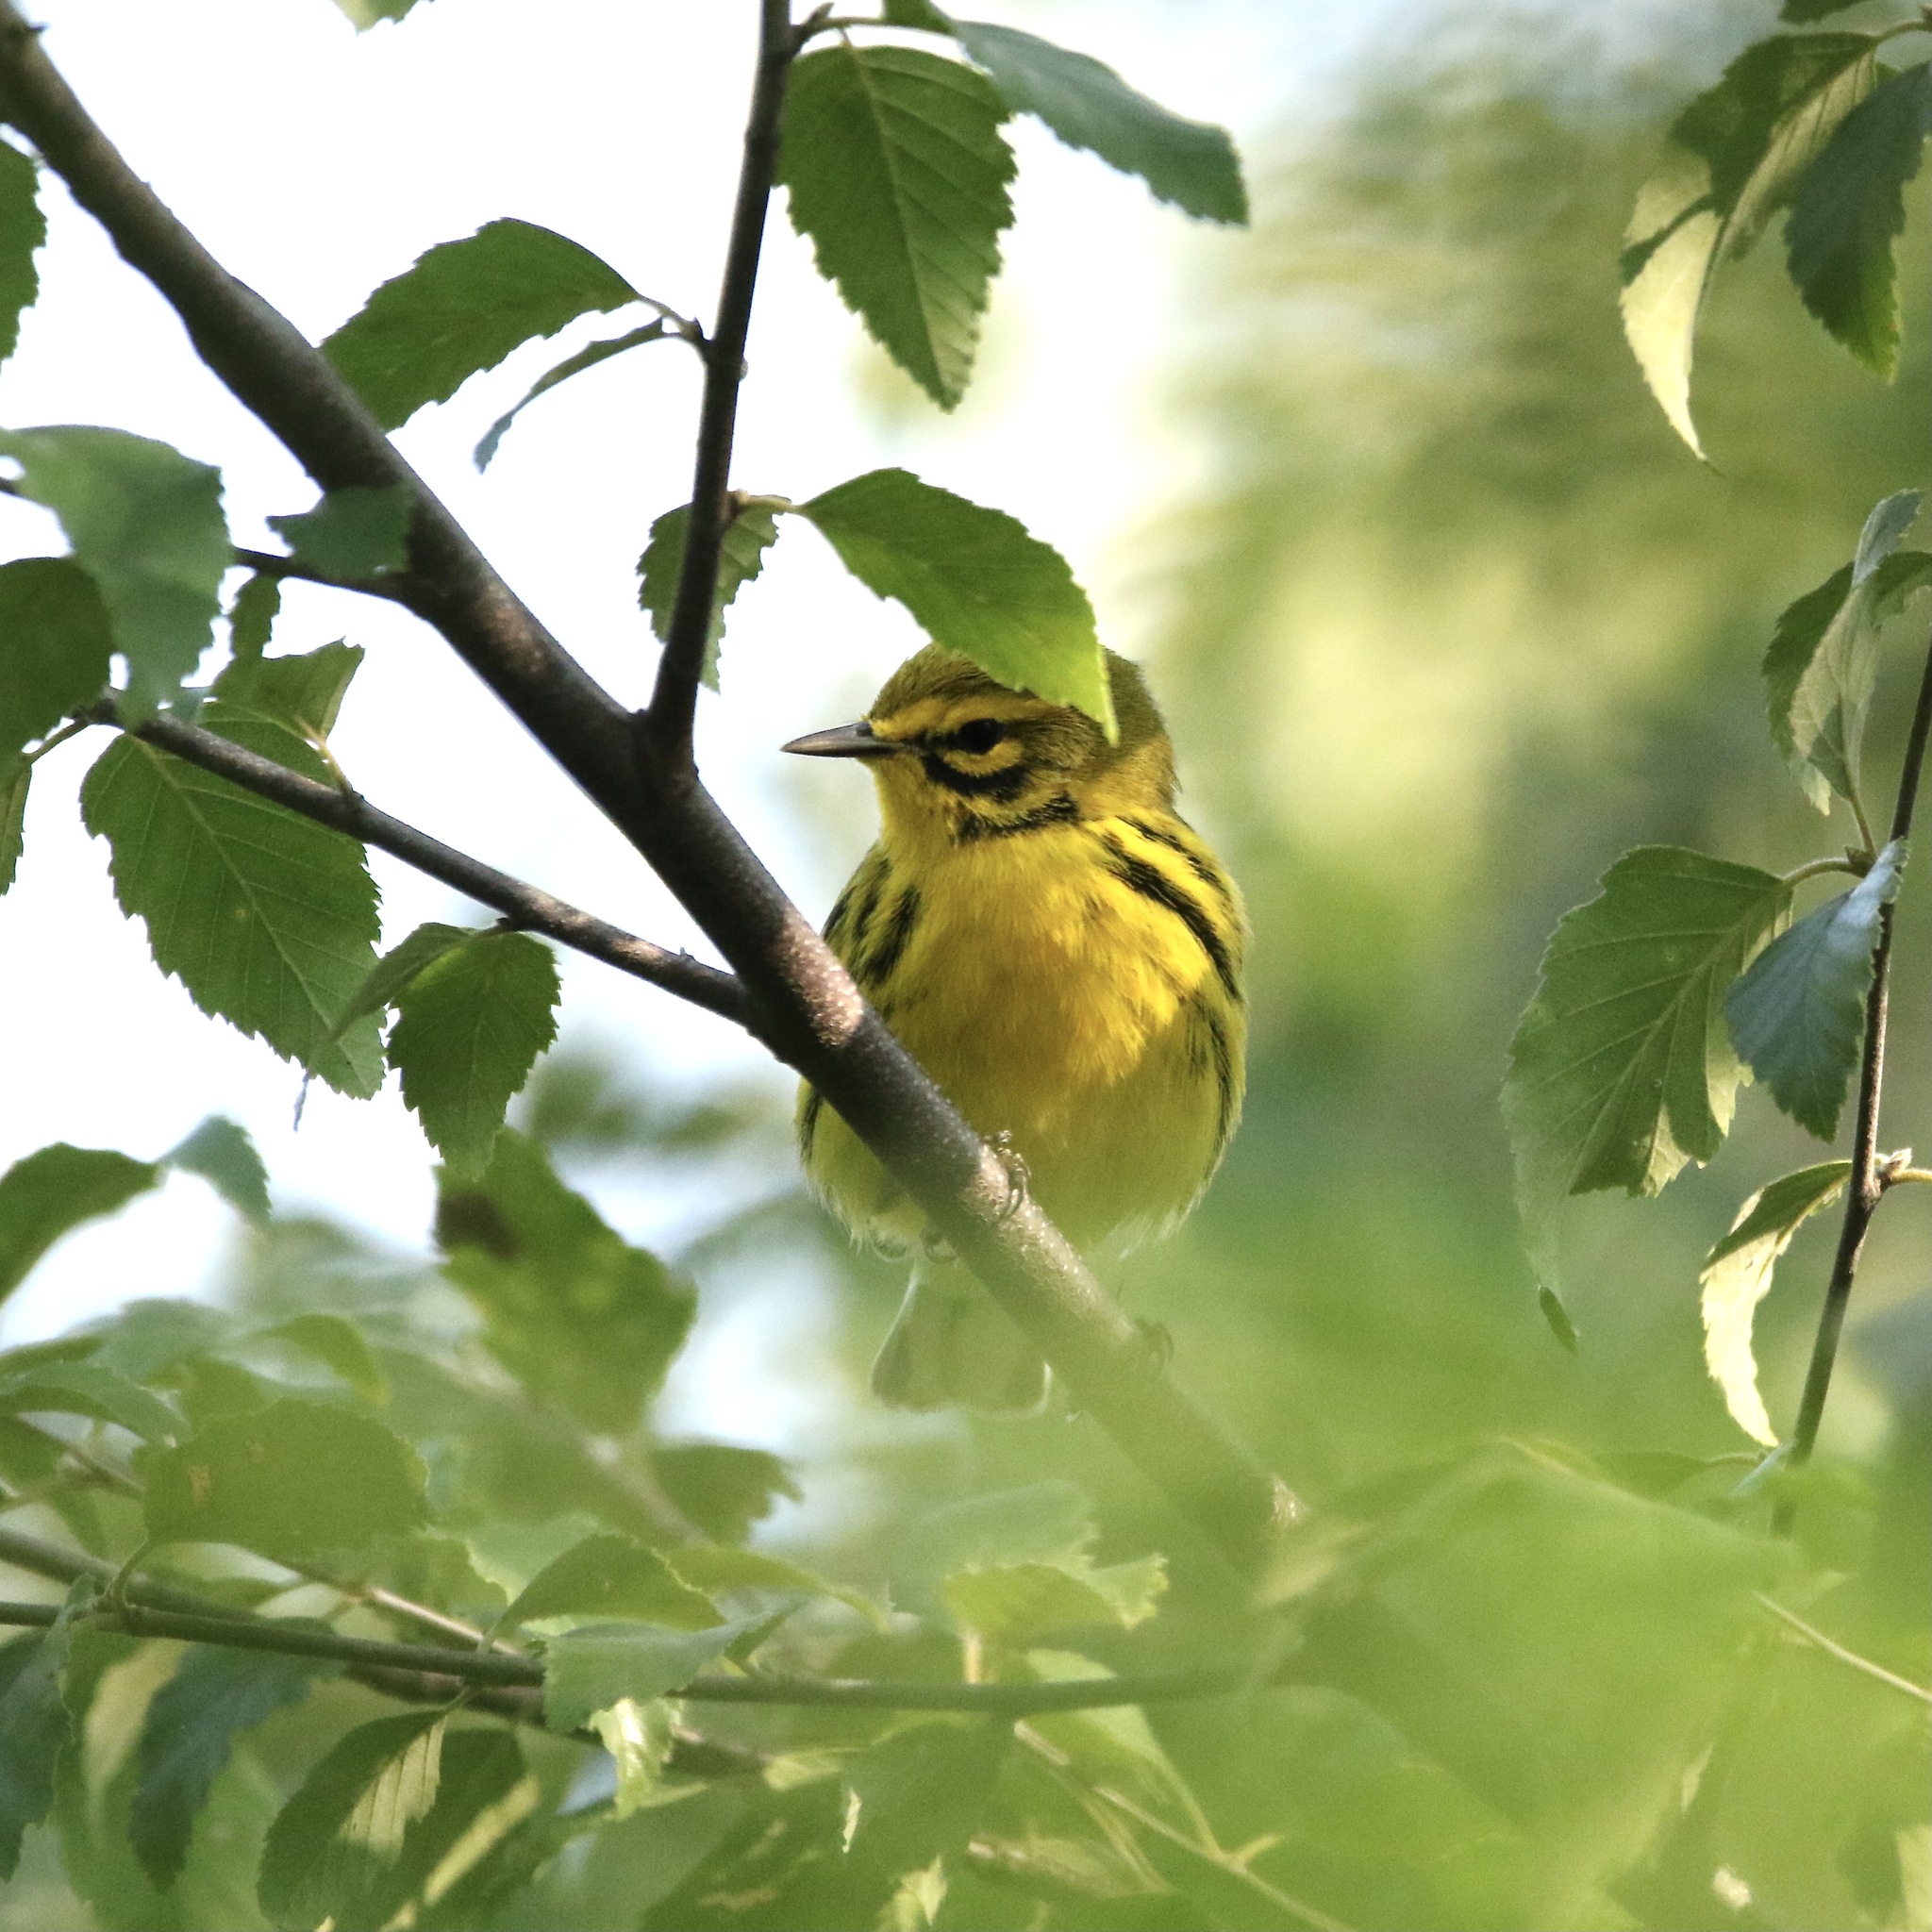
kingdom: Animalia
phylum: Chordata
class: Aves
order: Passeriformes
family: Parulidae
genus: Setophaga
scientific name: Setophaga discolor
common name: Prairie warbler
